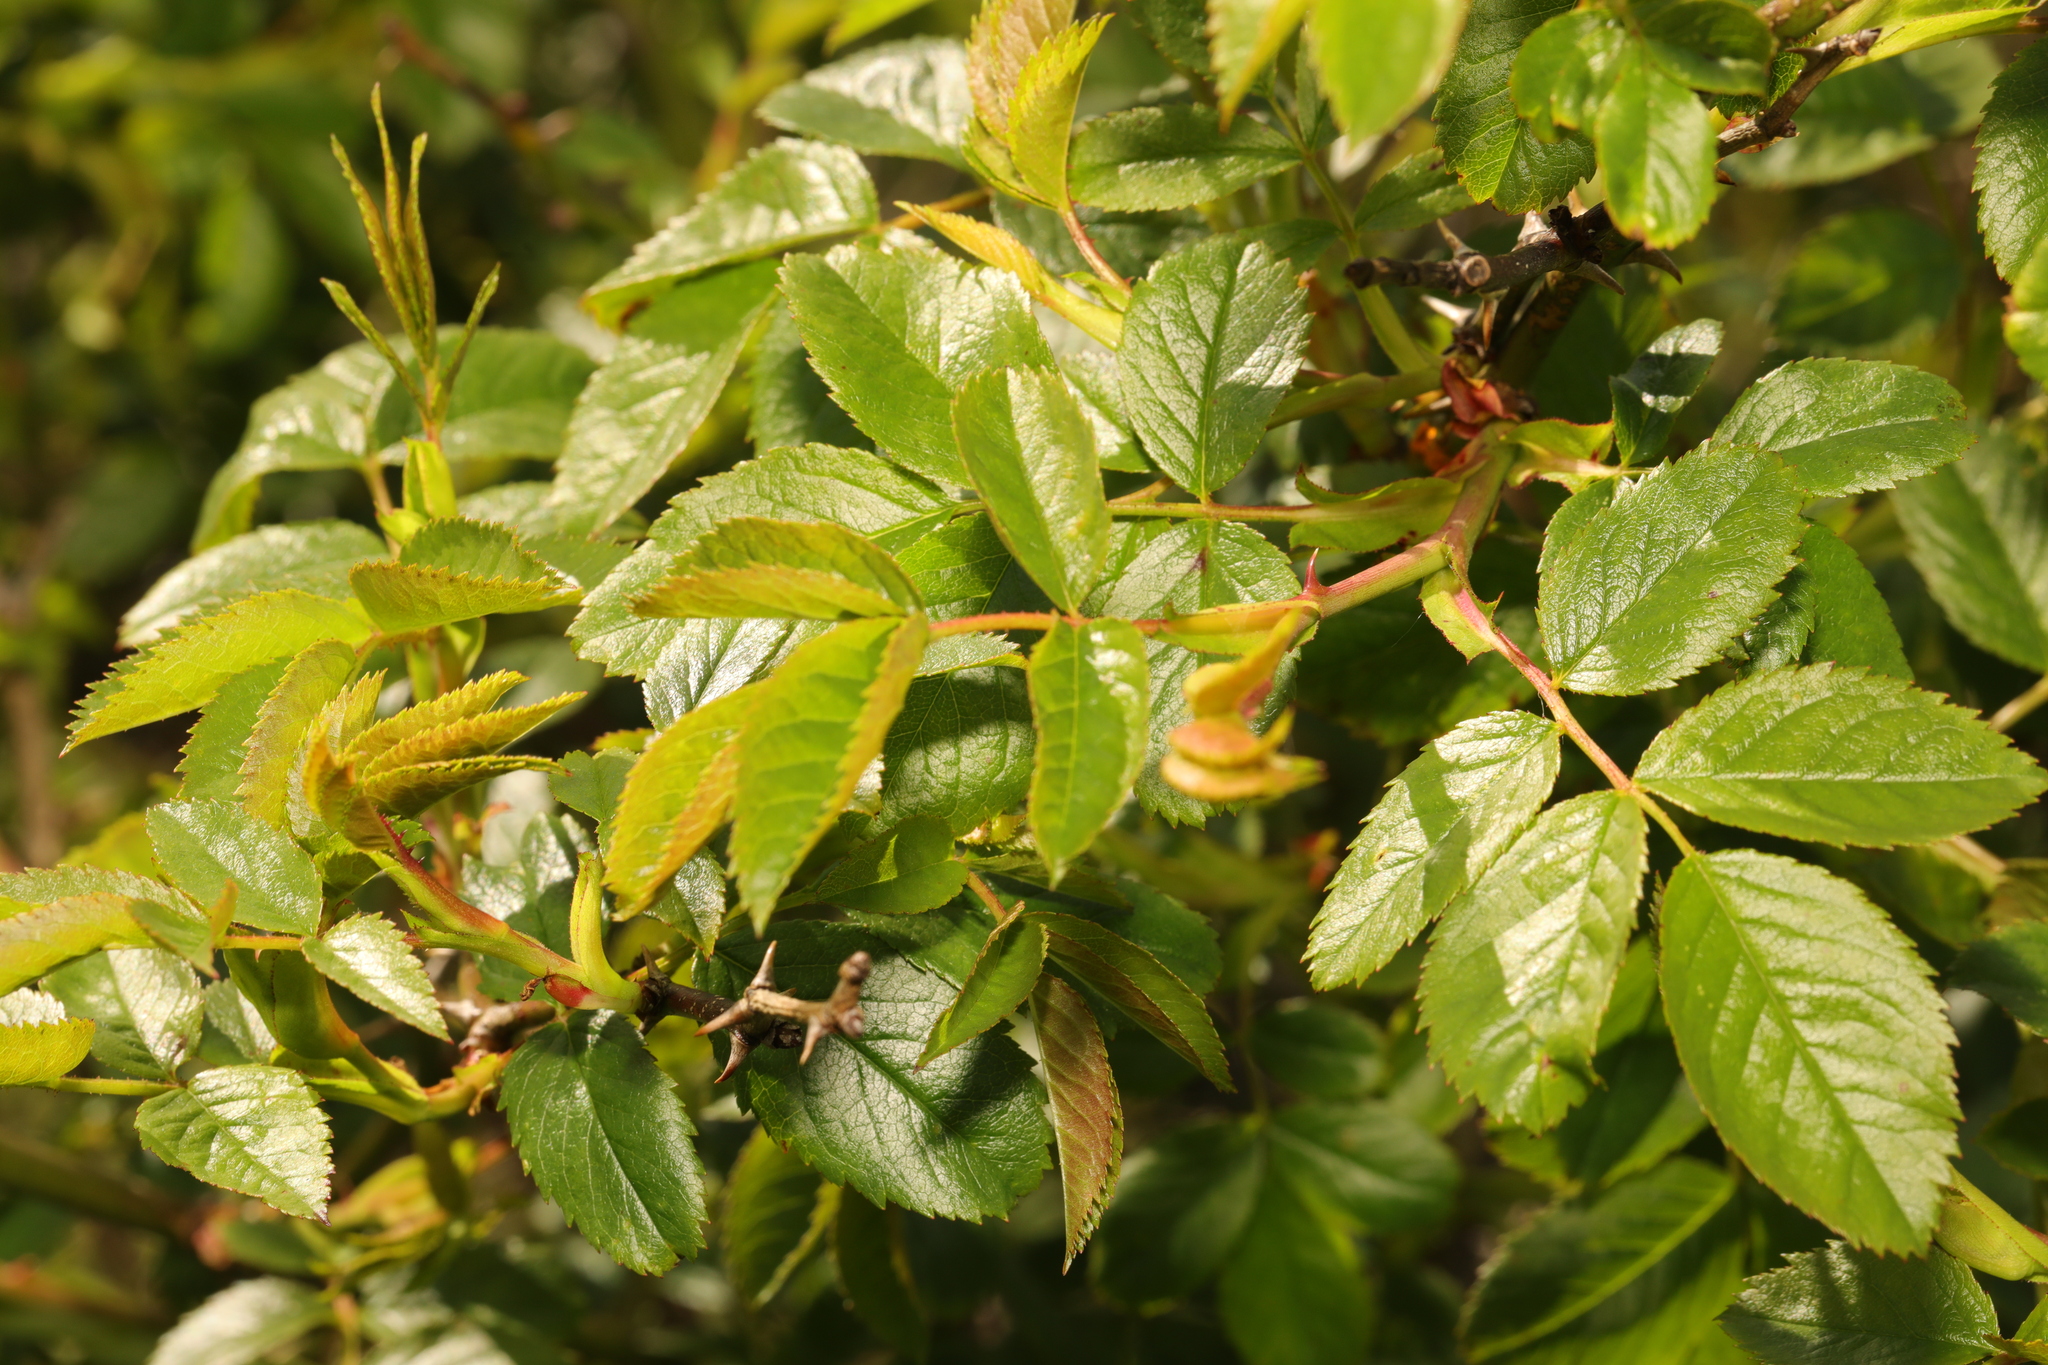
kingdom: Plantae
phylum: Tracheophyta
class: Magnoliopsida
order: Rosales
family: Rosaceae
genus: Rosa
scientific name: Rosa canina
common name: Dog rose
